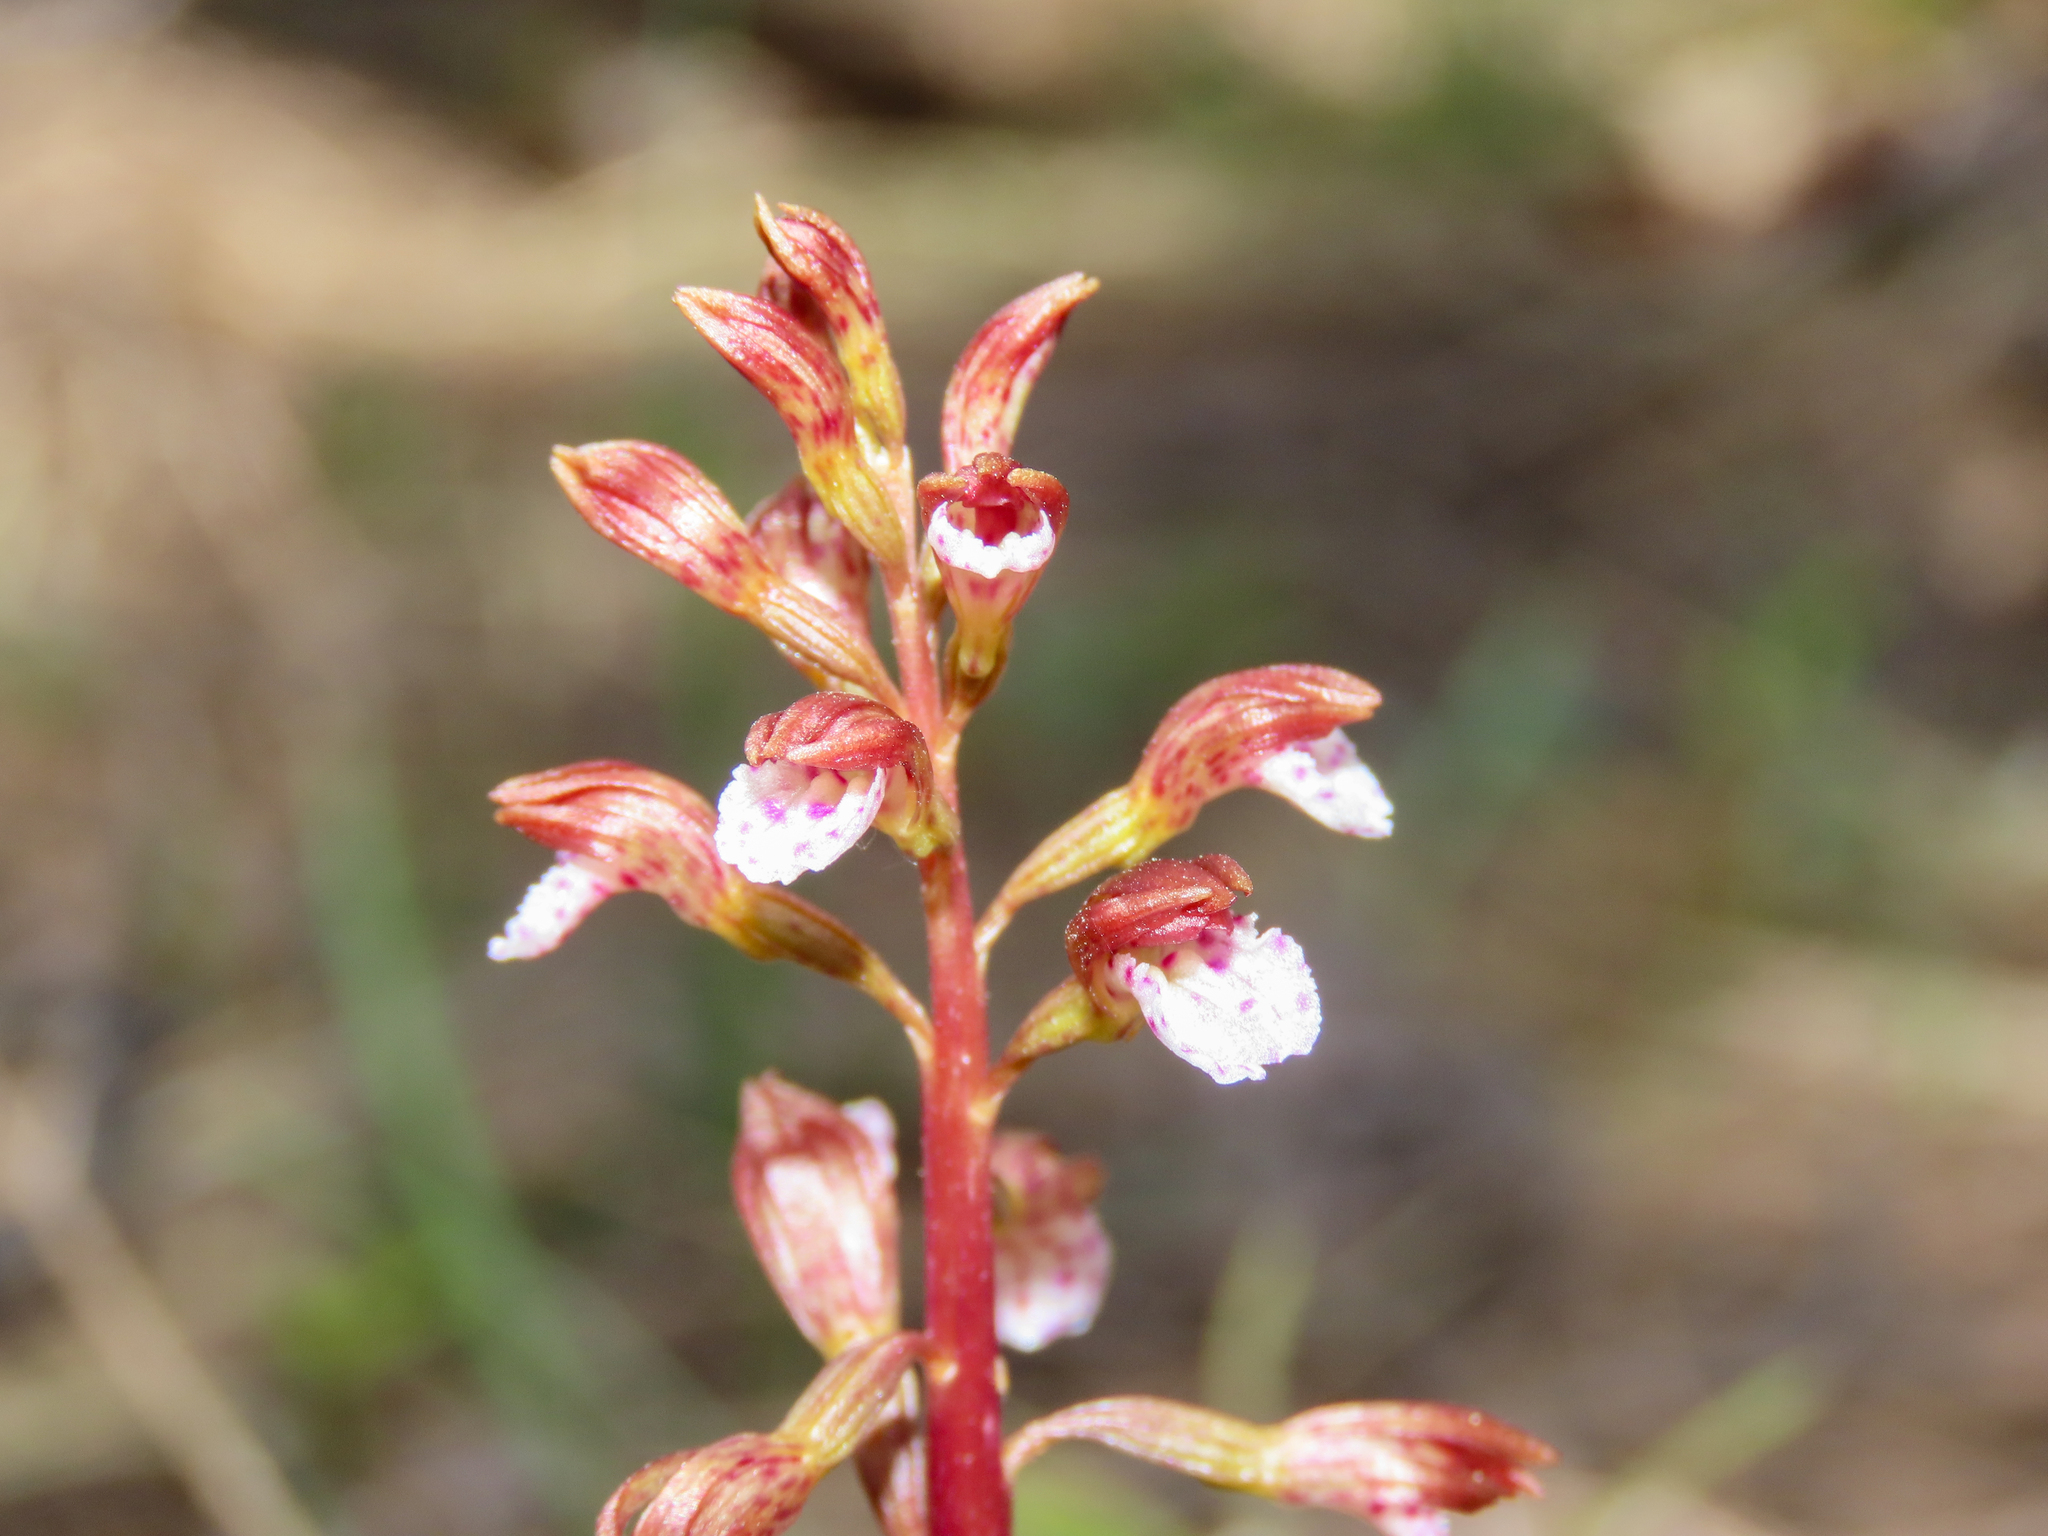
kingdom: Plantae
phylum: Tracheophyta
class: Liliopsida
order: Asparagales
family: Orchidaceae
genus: Corallorhiza
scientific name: Corallorhiza wisteriana
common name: Spring coralroot
